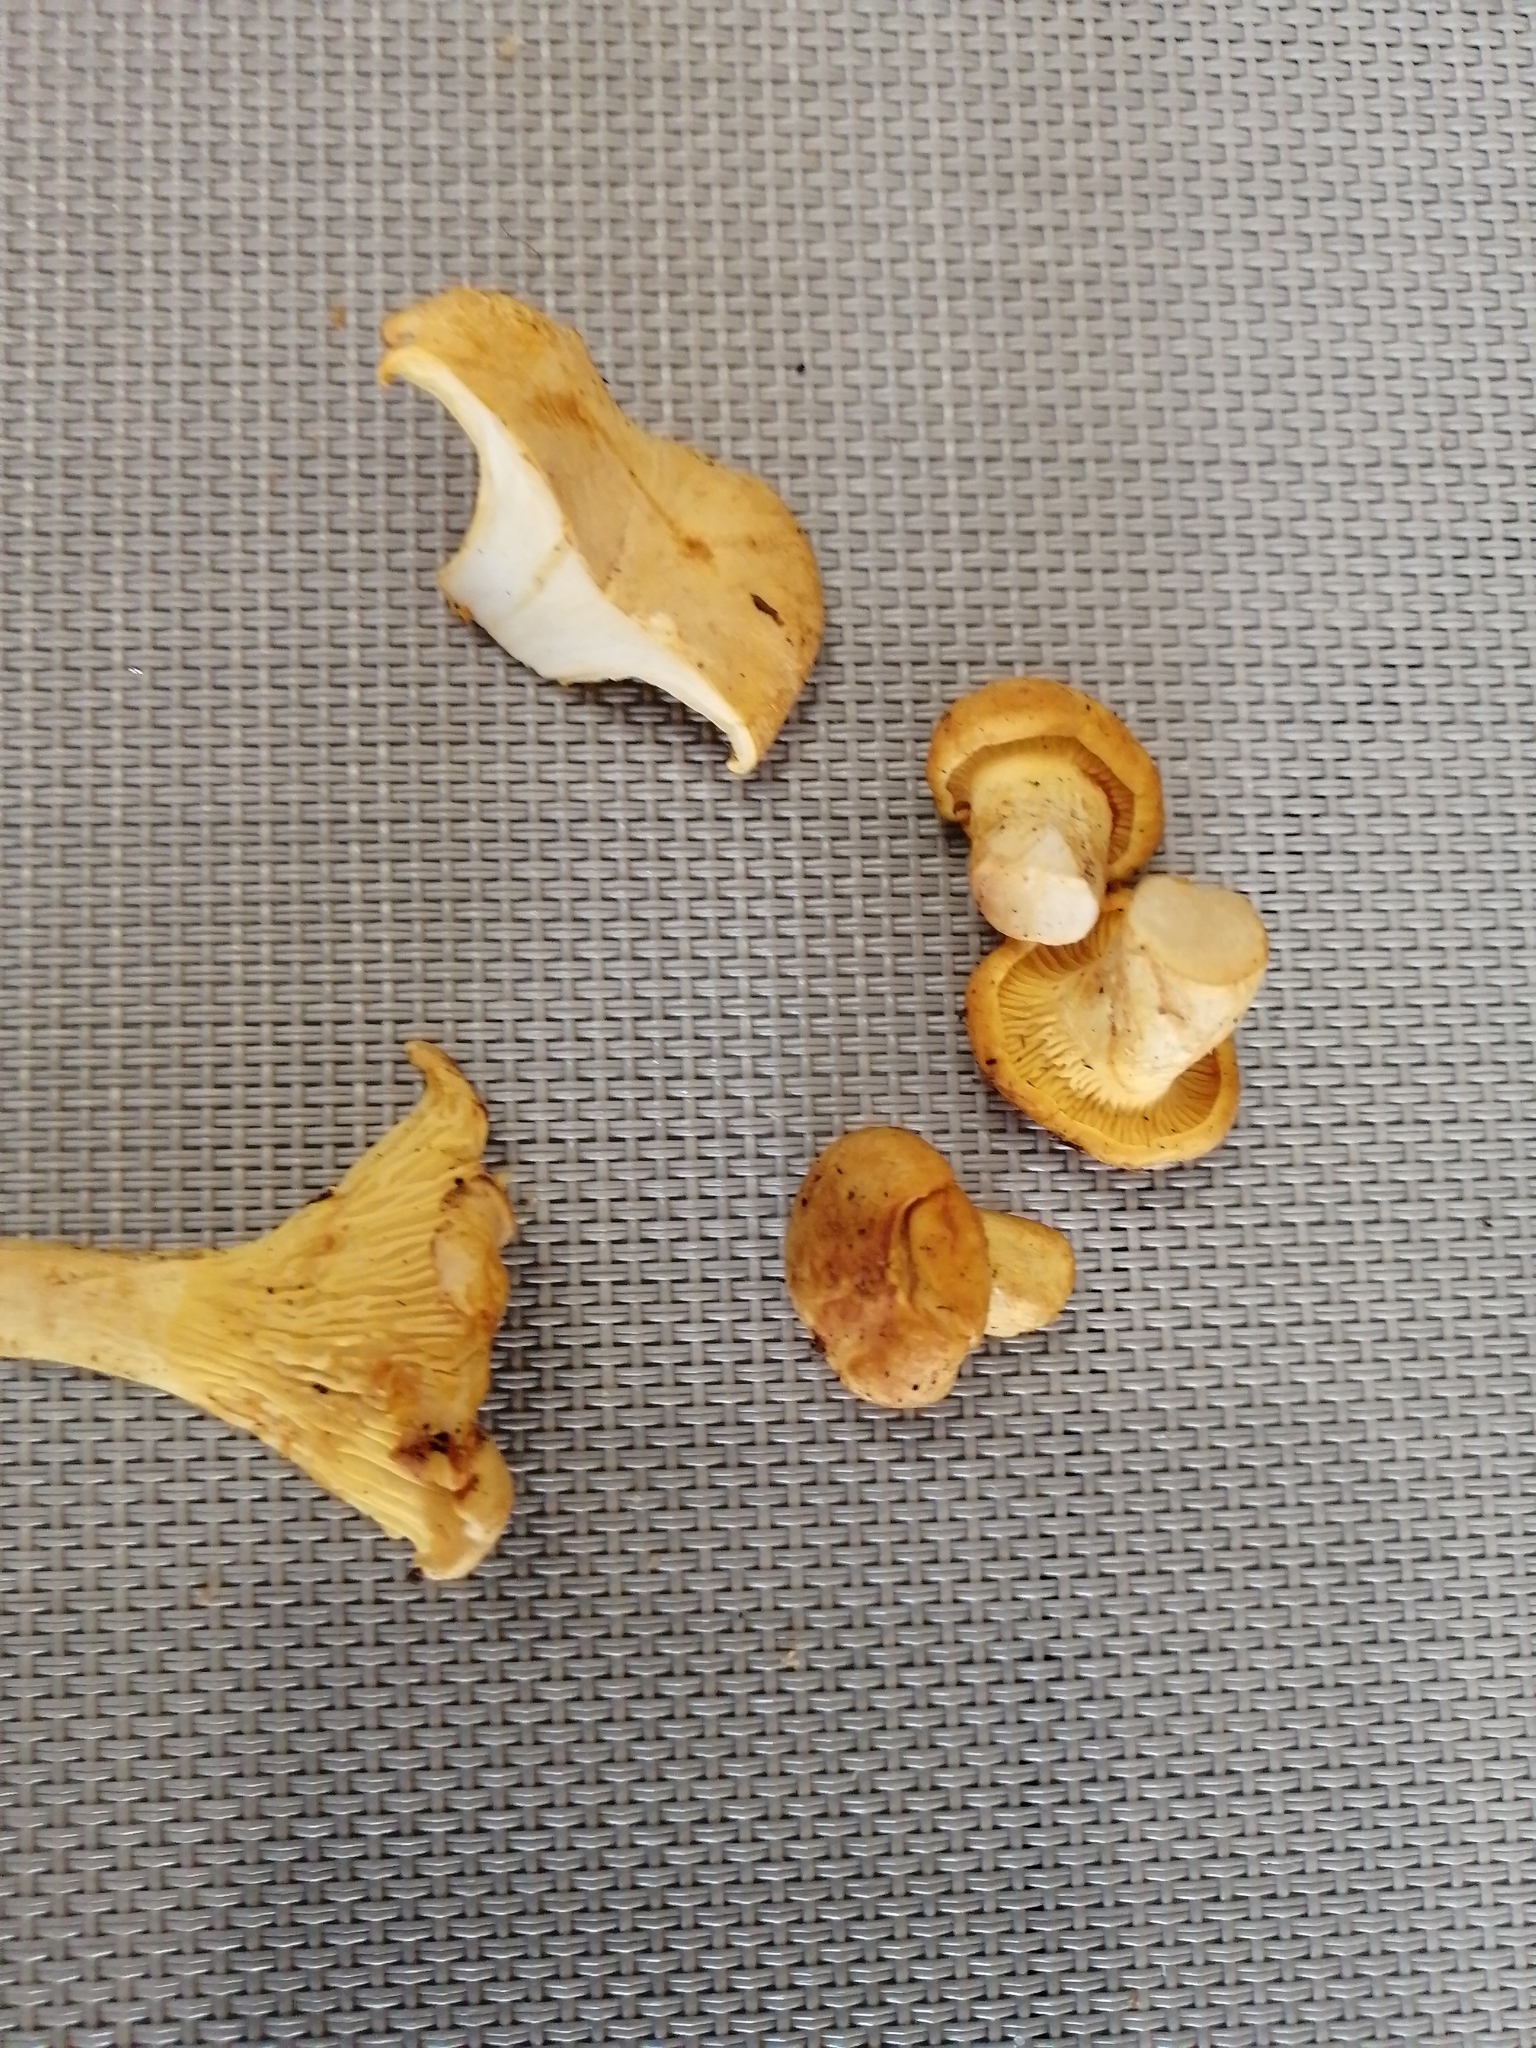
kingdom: Fungi
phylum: Basidiomycota
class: Agaricomycetes
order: Cantharellales
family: Hydnaceae
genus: Cantharellus
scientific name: Cantharellus cibarius
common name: Chanterelle
